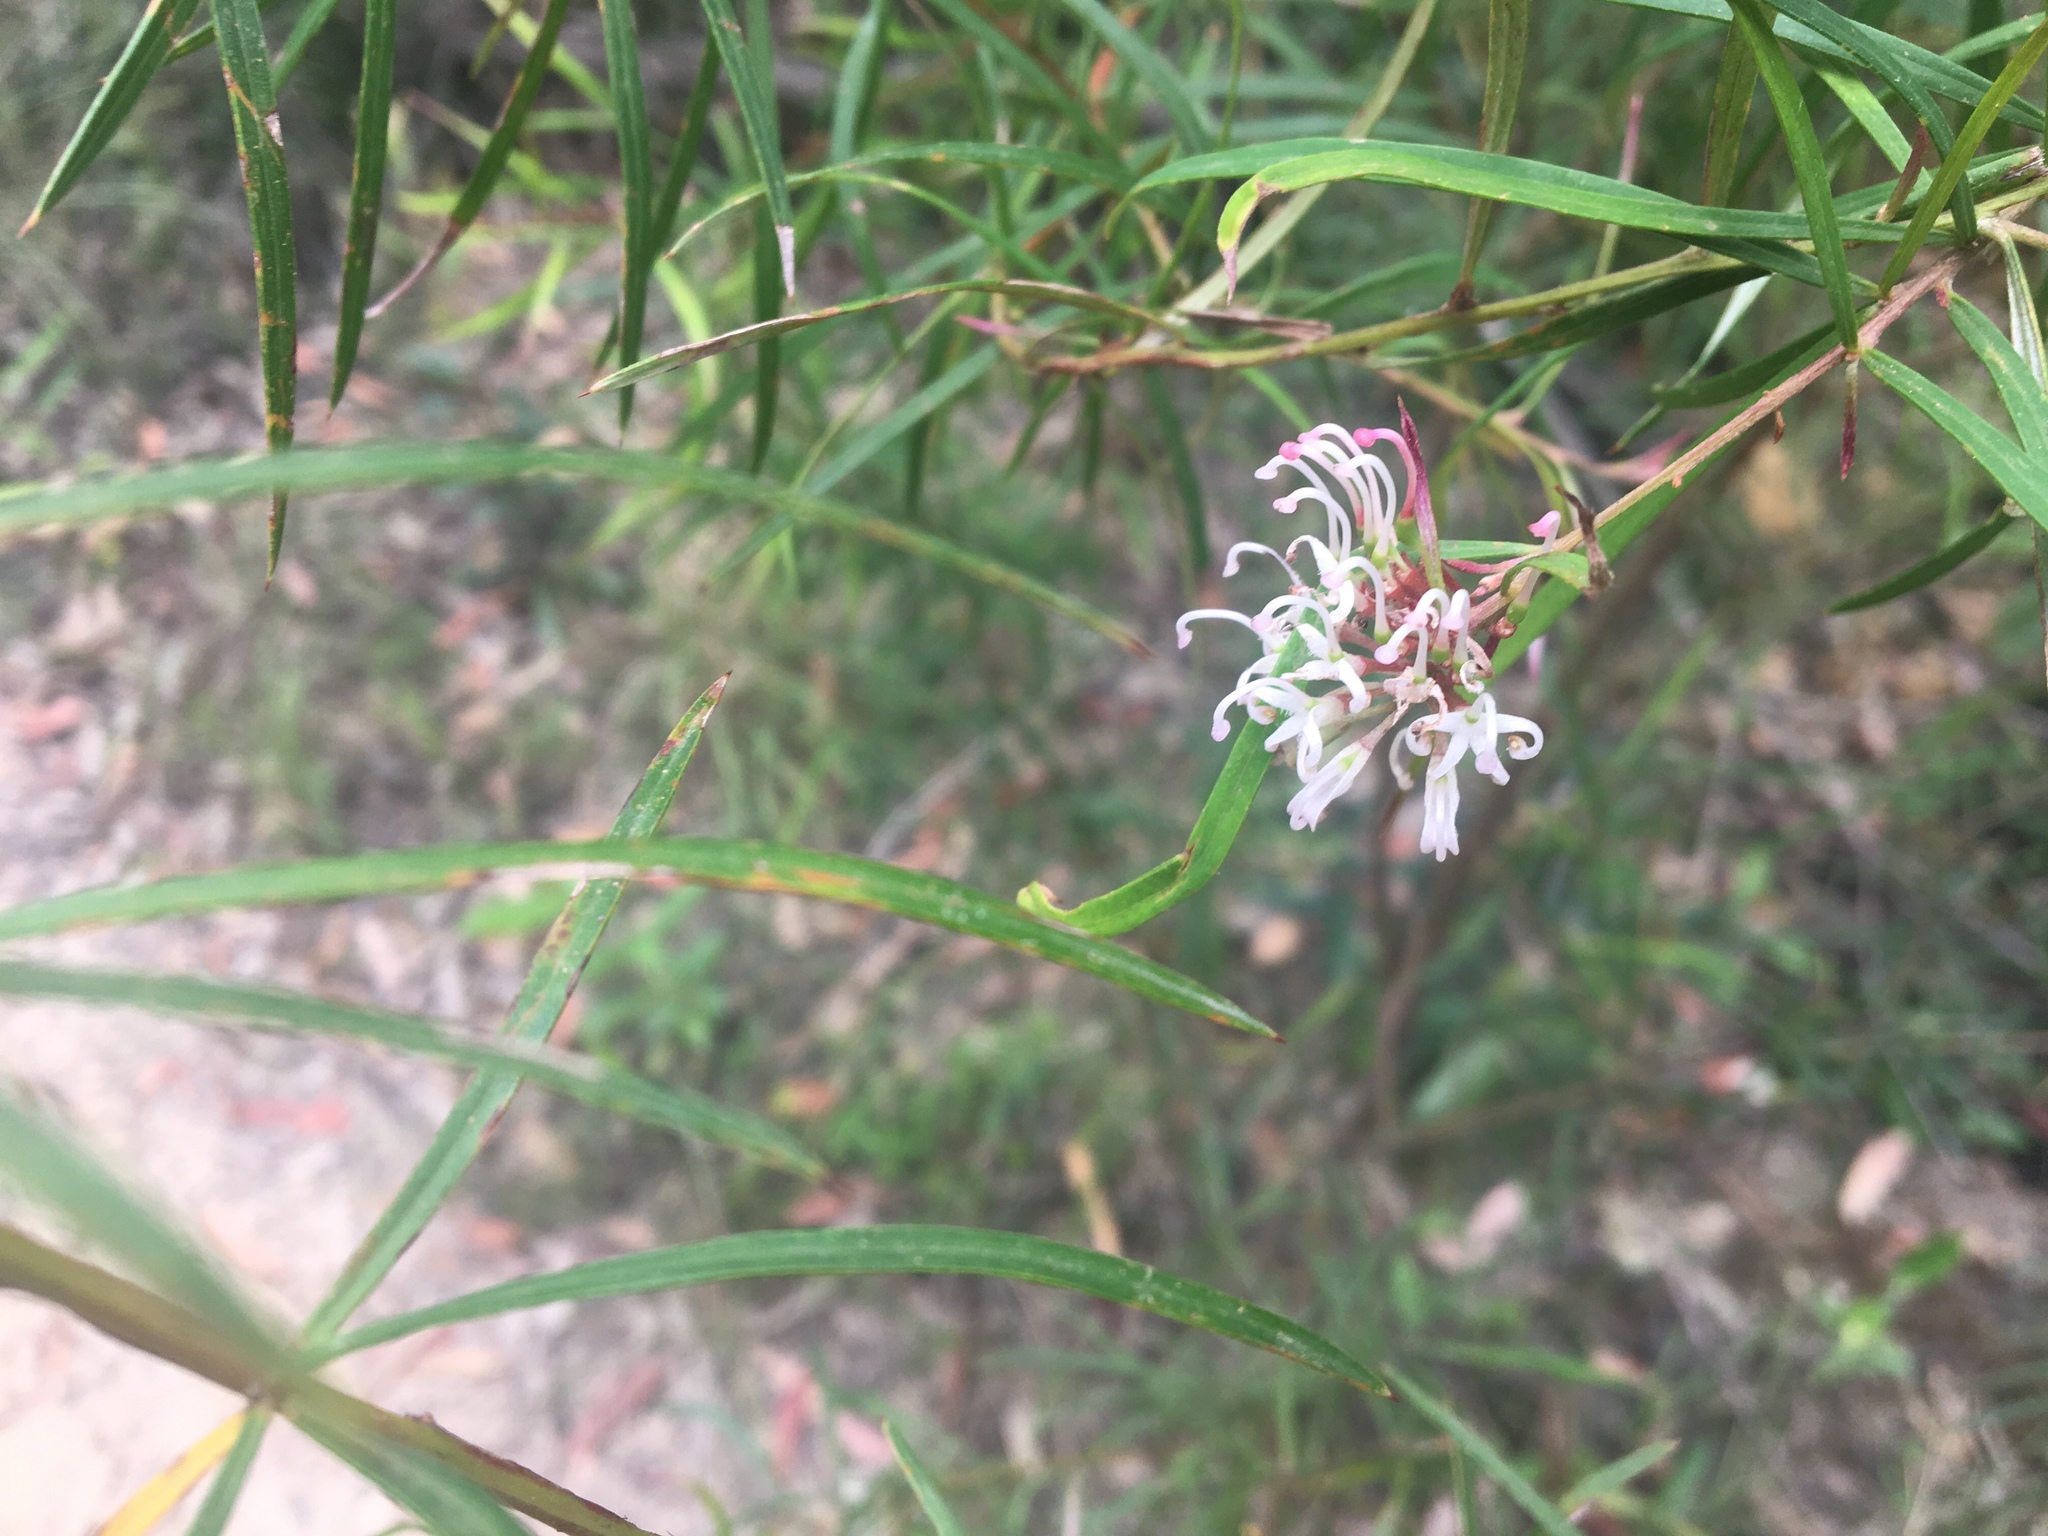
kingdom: Plantae
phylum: Tracheophyta
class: Magnoliopsida
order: Proteales
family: Proteaceae
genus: Grevillea
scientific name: Grevillea linearifolia
